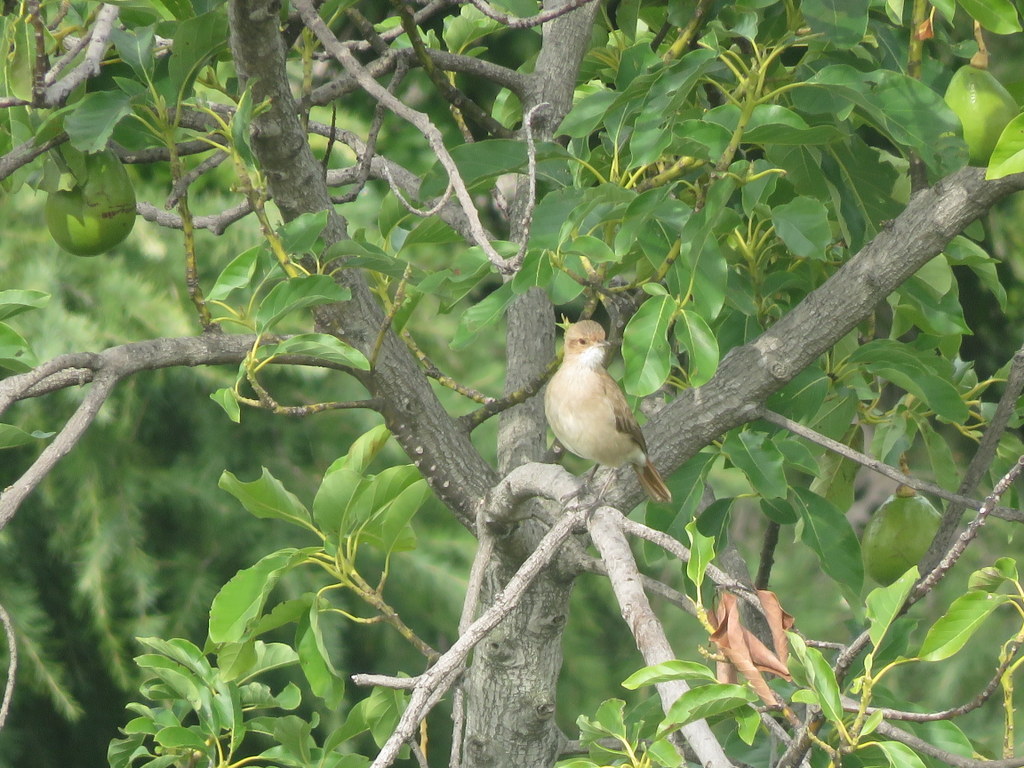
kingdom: Animalia
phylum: Chordata
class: Aves
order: Passeriformes
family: Furnariidae
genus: Furnarius
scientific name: Furnarius rufus
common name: Rufous hornero
